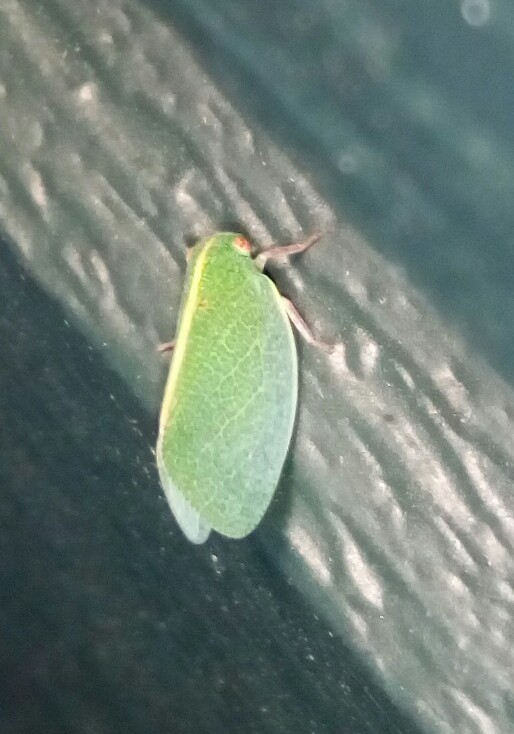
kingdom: Animalia
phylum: Arthropoda
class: Insecta
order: Hemiptera
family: Acanaloniidae
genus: Acanalonia
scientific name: Acanalonia servillei
